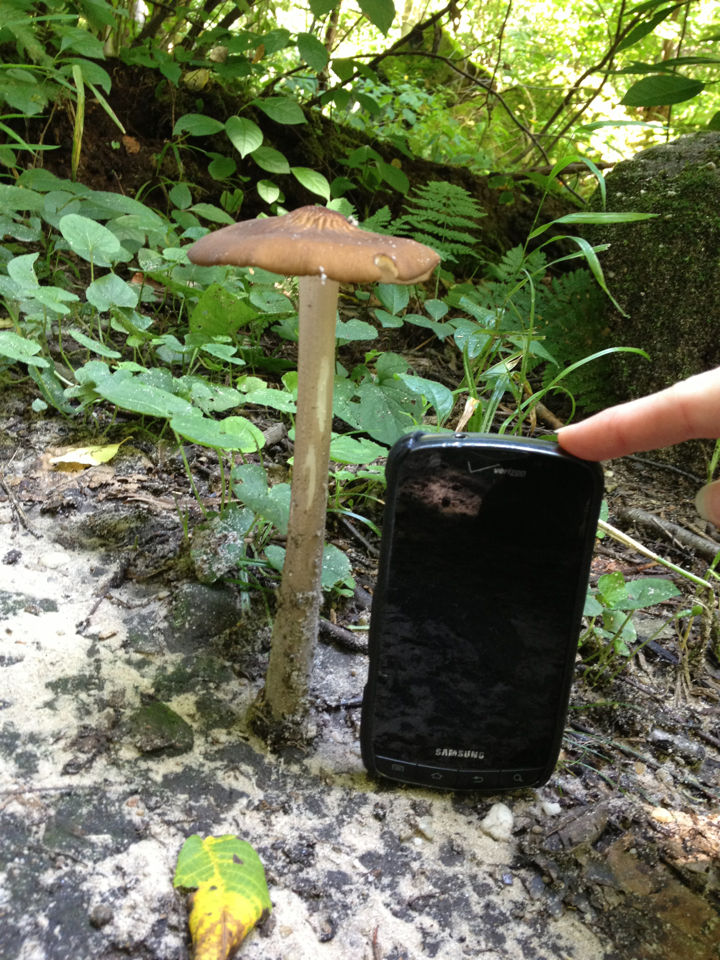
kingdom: Fungi
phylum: Basidiomycota
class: Agaricomycetes
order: Agaricales
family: Physalacriaceae
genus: Hymenopellis
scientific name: Hymenopellis furfuracea
